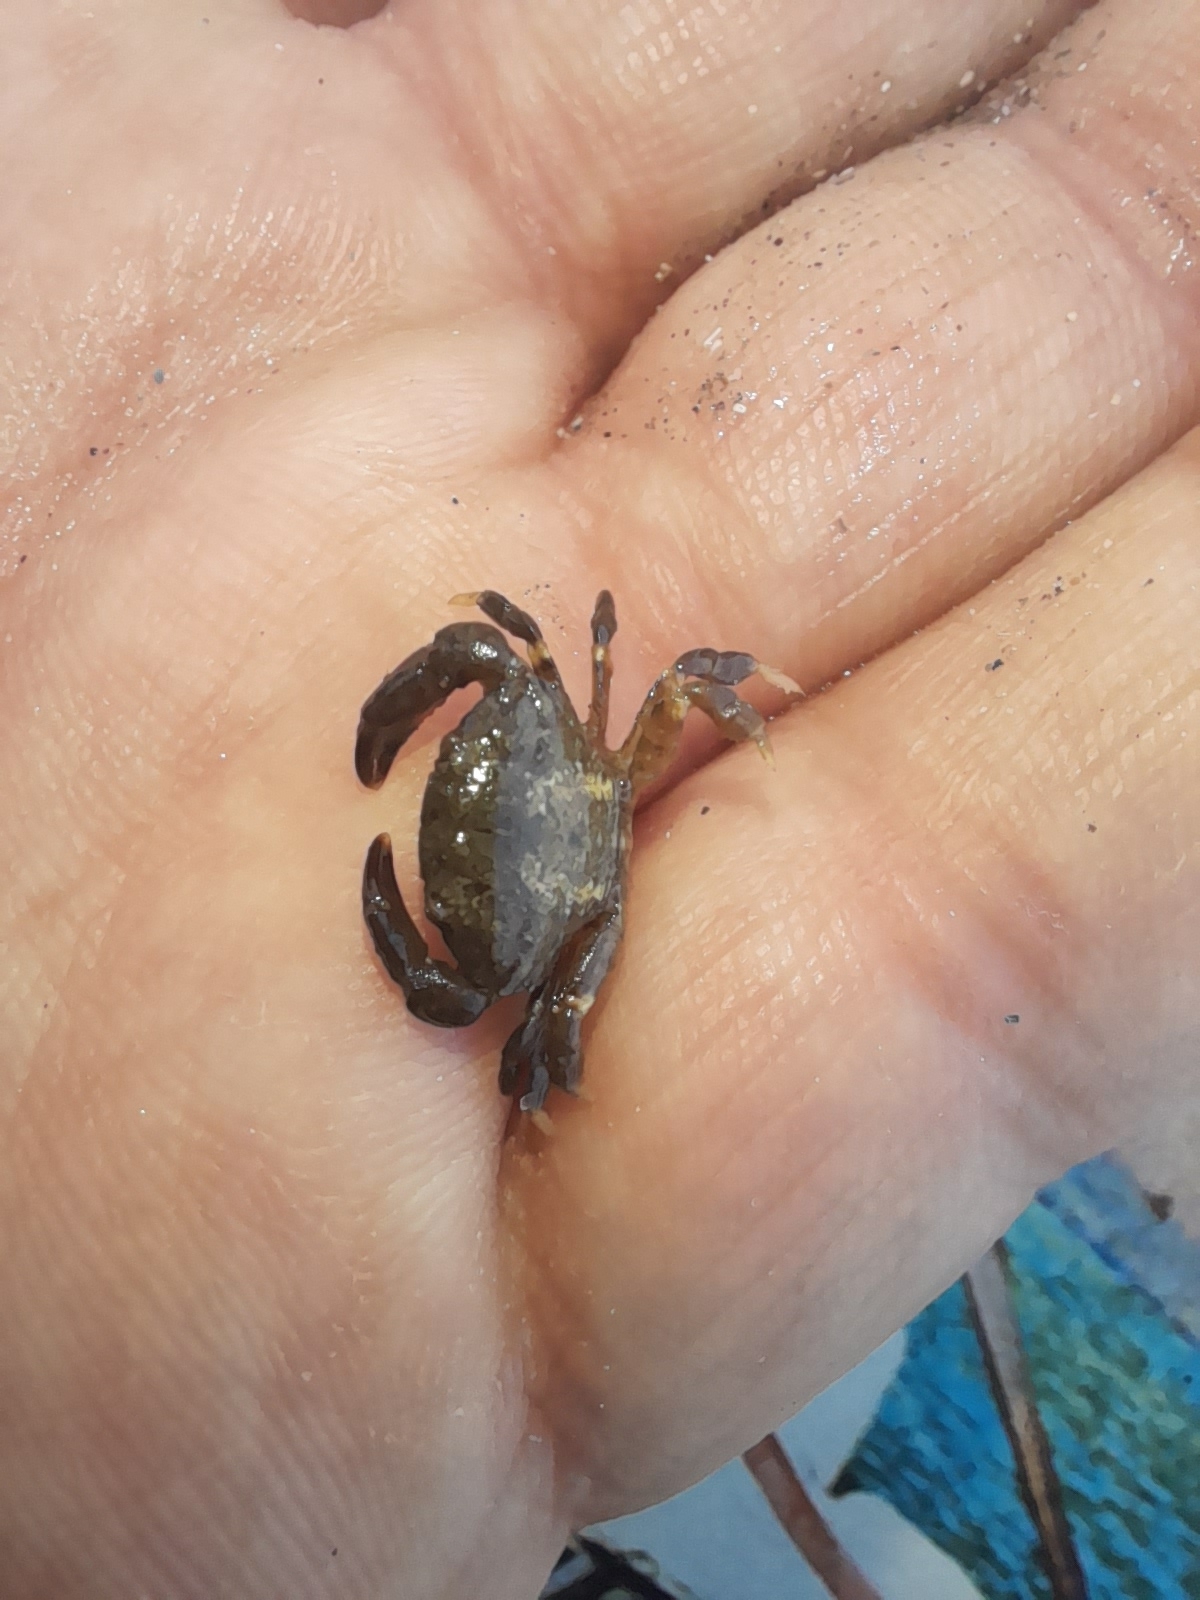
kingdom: Animalia
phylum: Arthropoda
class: Malacostraca
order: Decapoda
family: Xanthidae
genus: Xantho
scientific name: Xantho poressa
